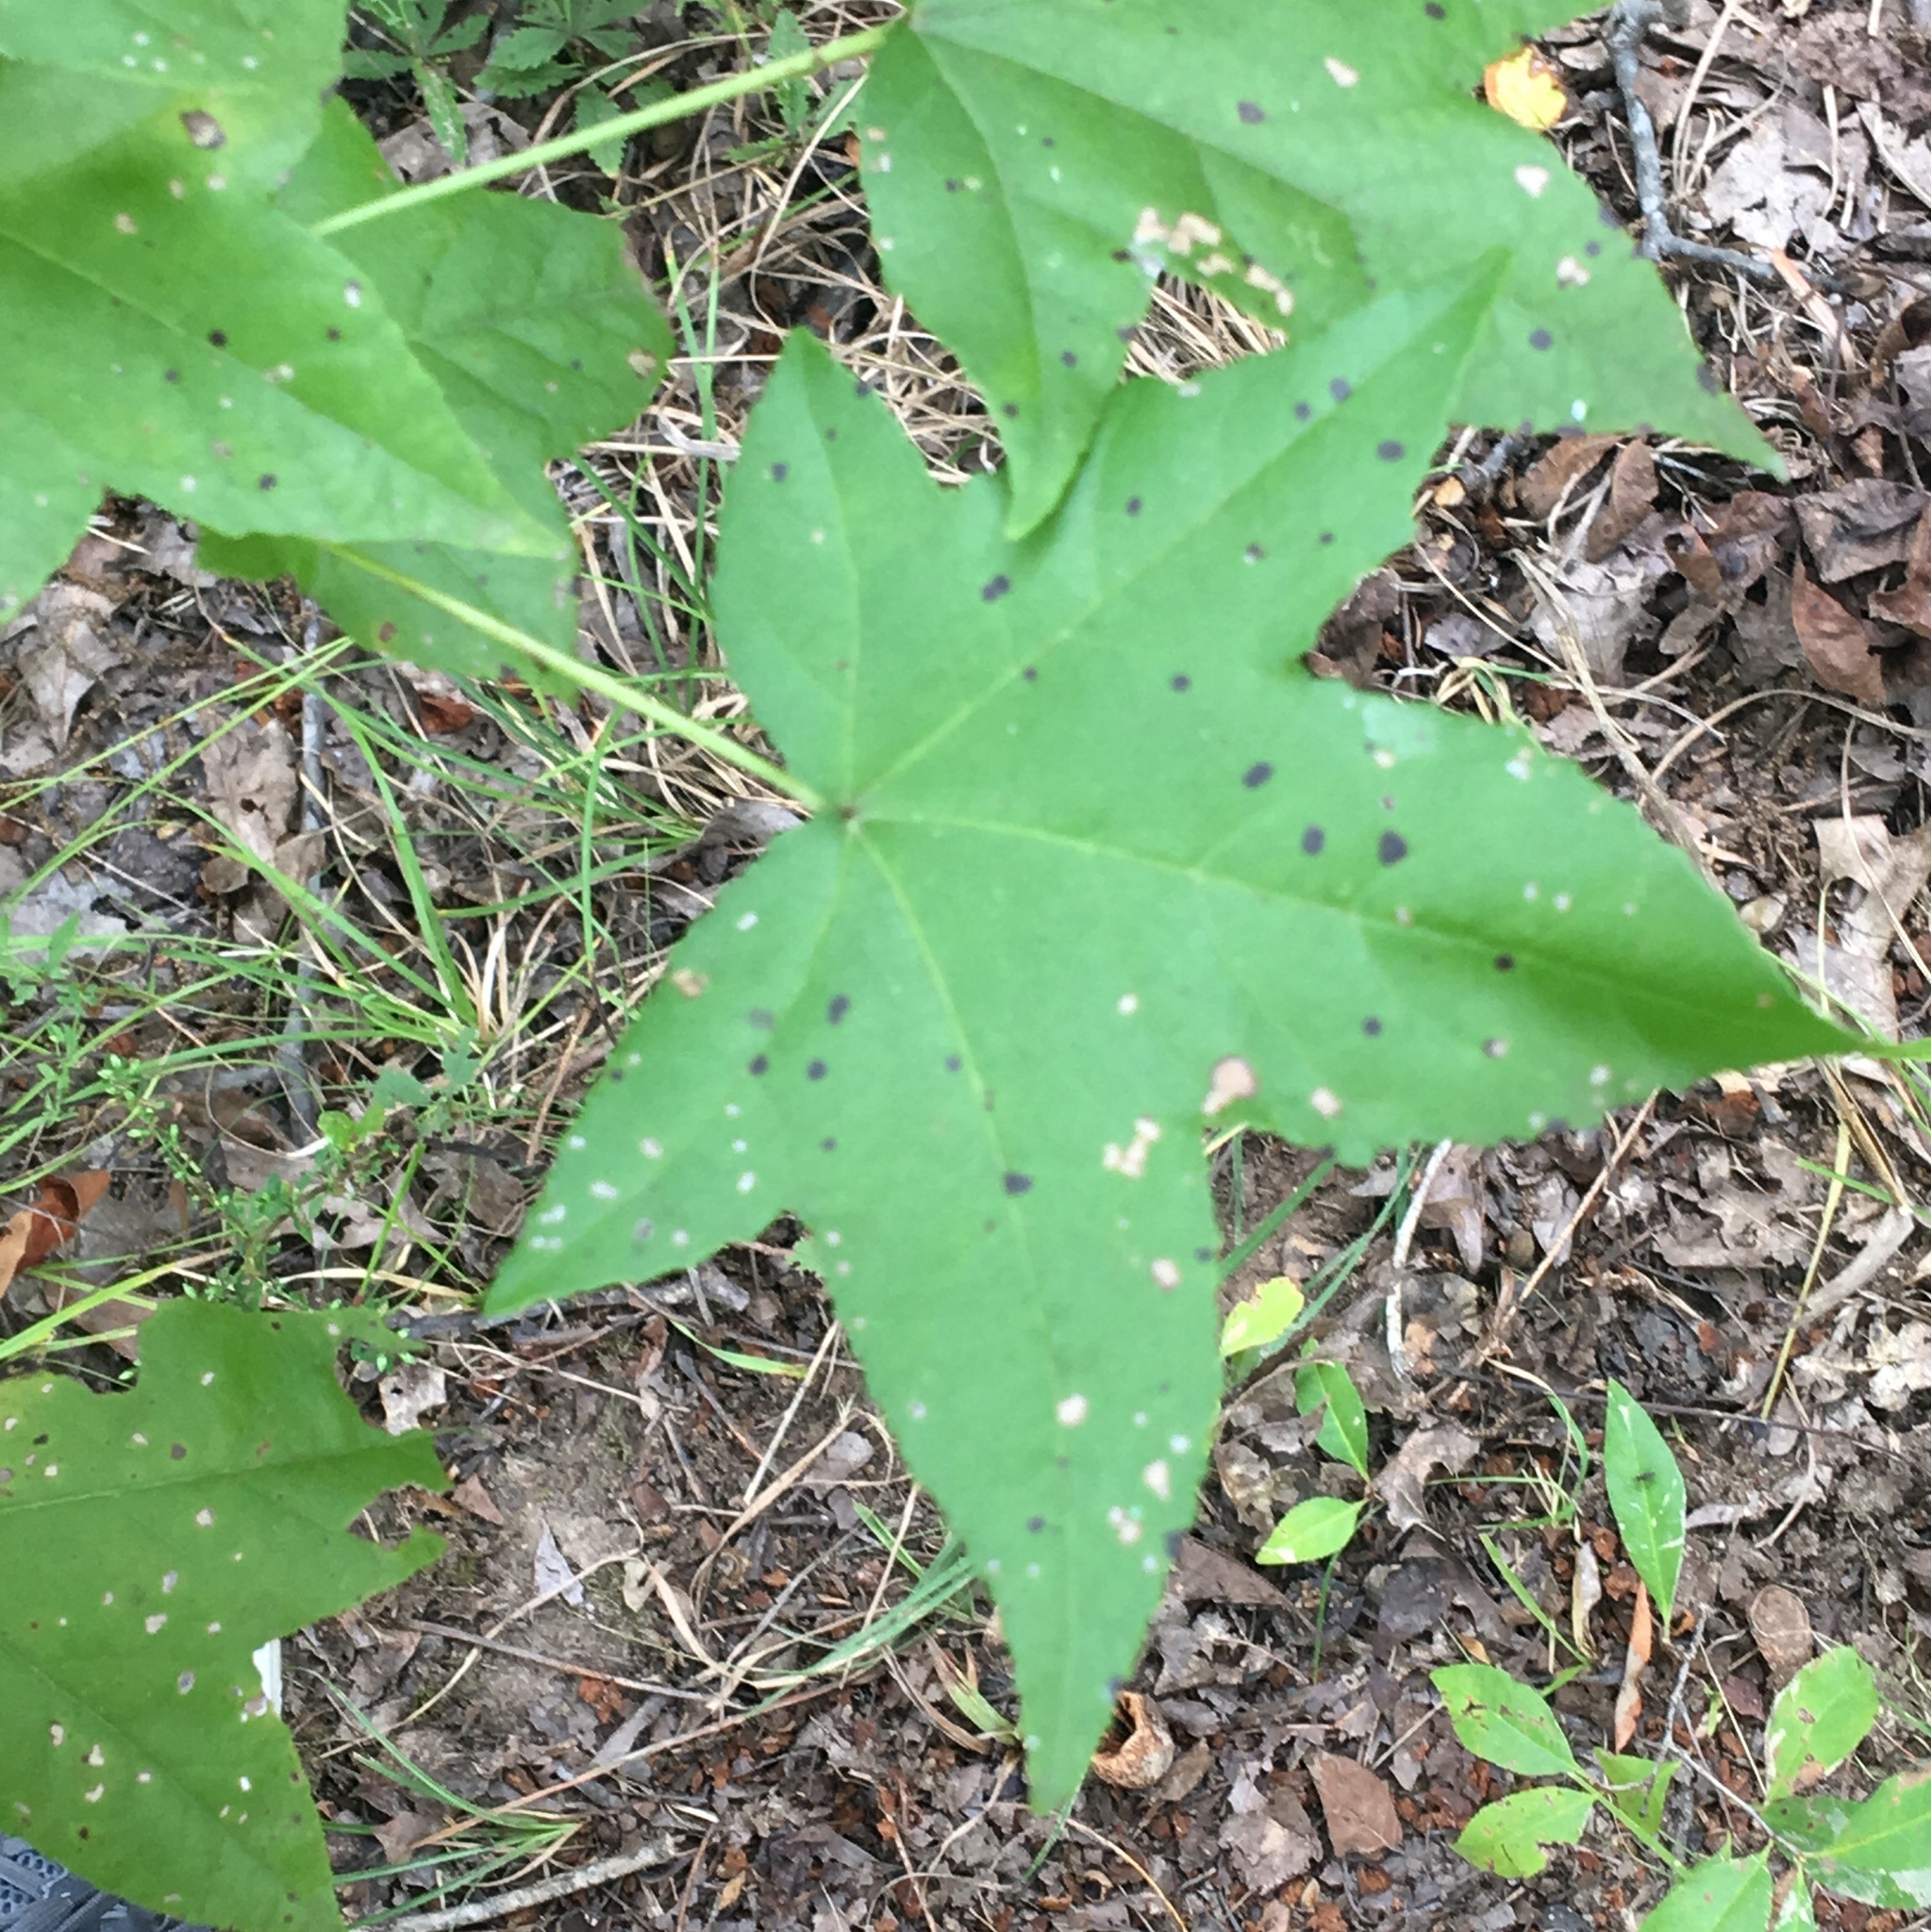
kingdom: Plantae
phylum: Tracheophyta
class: Magnoliopsida
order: Saxifragales
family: Altingiaceae
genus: Liquidambar
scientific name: Liquidambar styraciflua
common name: Sweet gum
